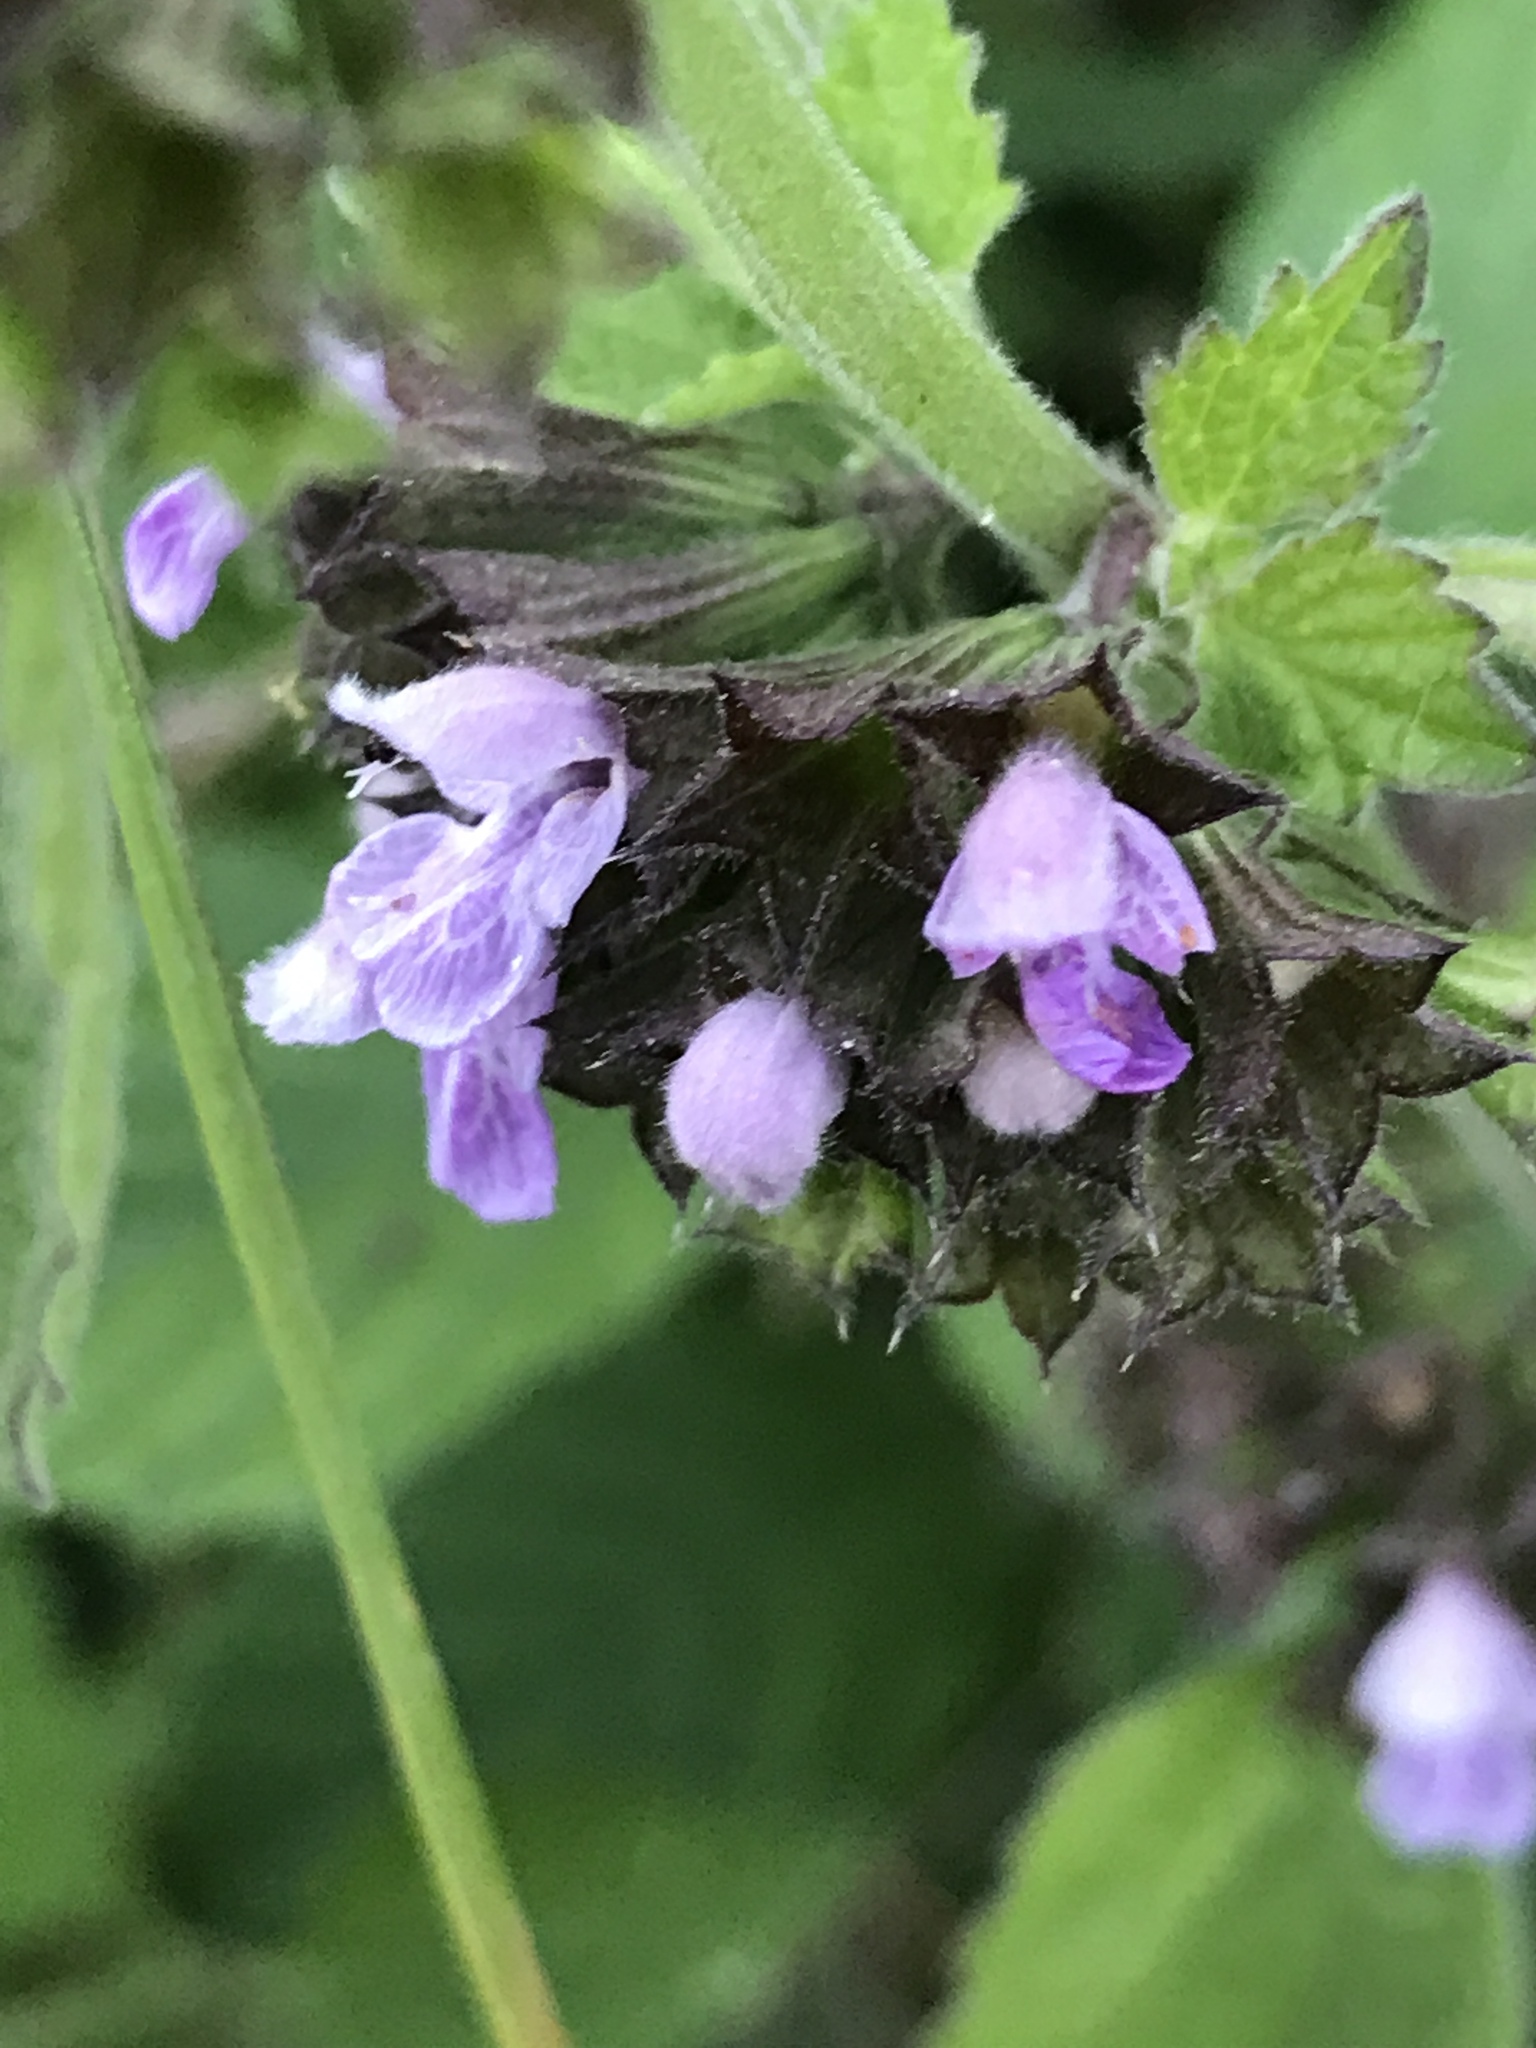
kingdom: Plantae
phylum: Tracheophyta
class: Magnoliopsida
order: Lamiales
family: Lamiaceae
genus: Ballota
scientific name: Ballota nigra
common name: Black horehound
